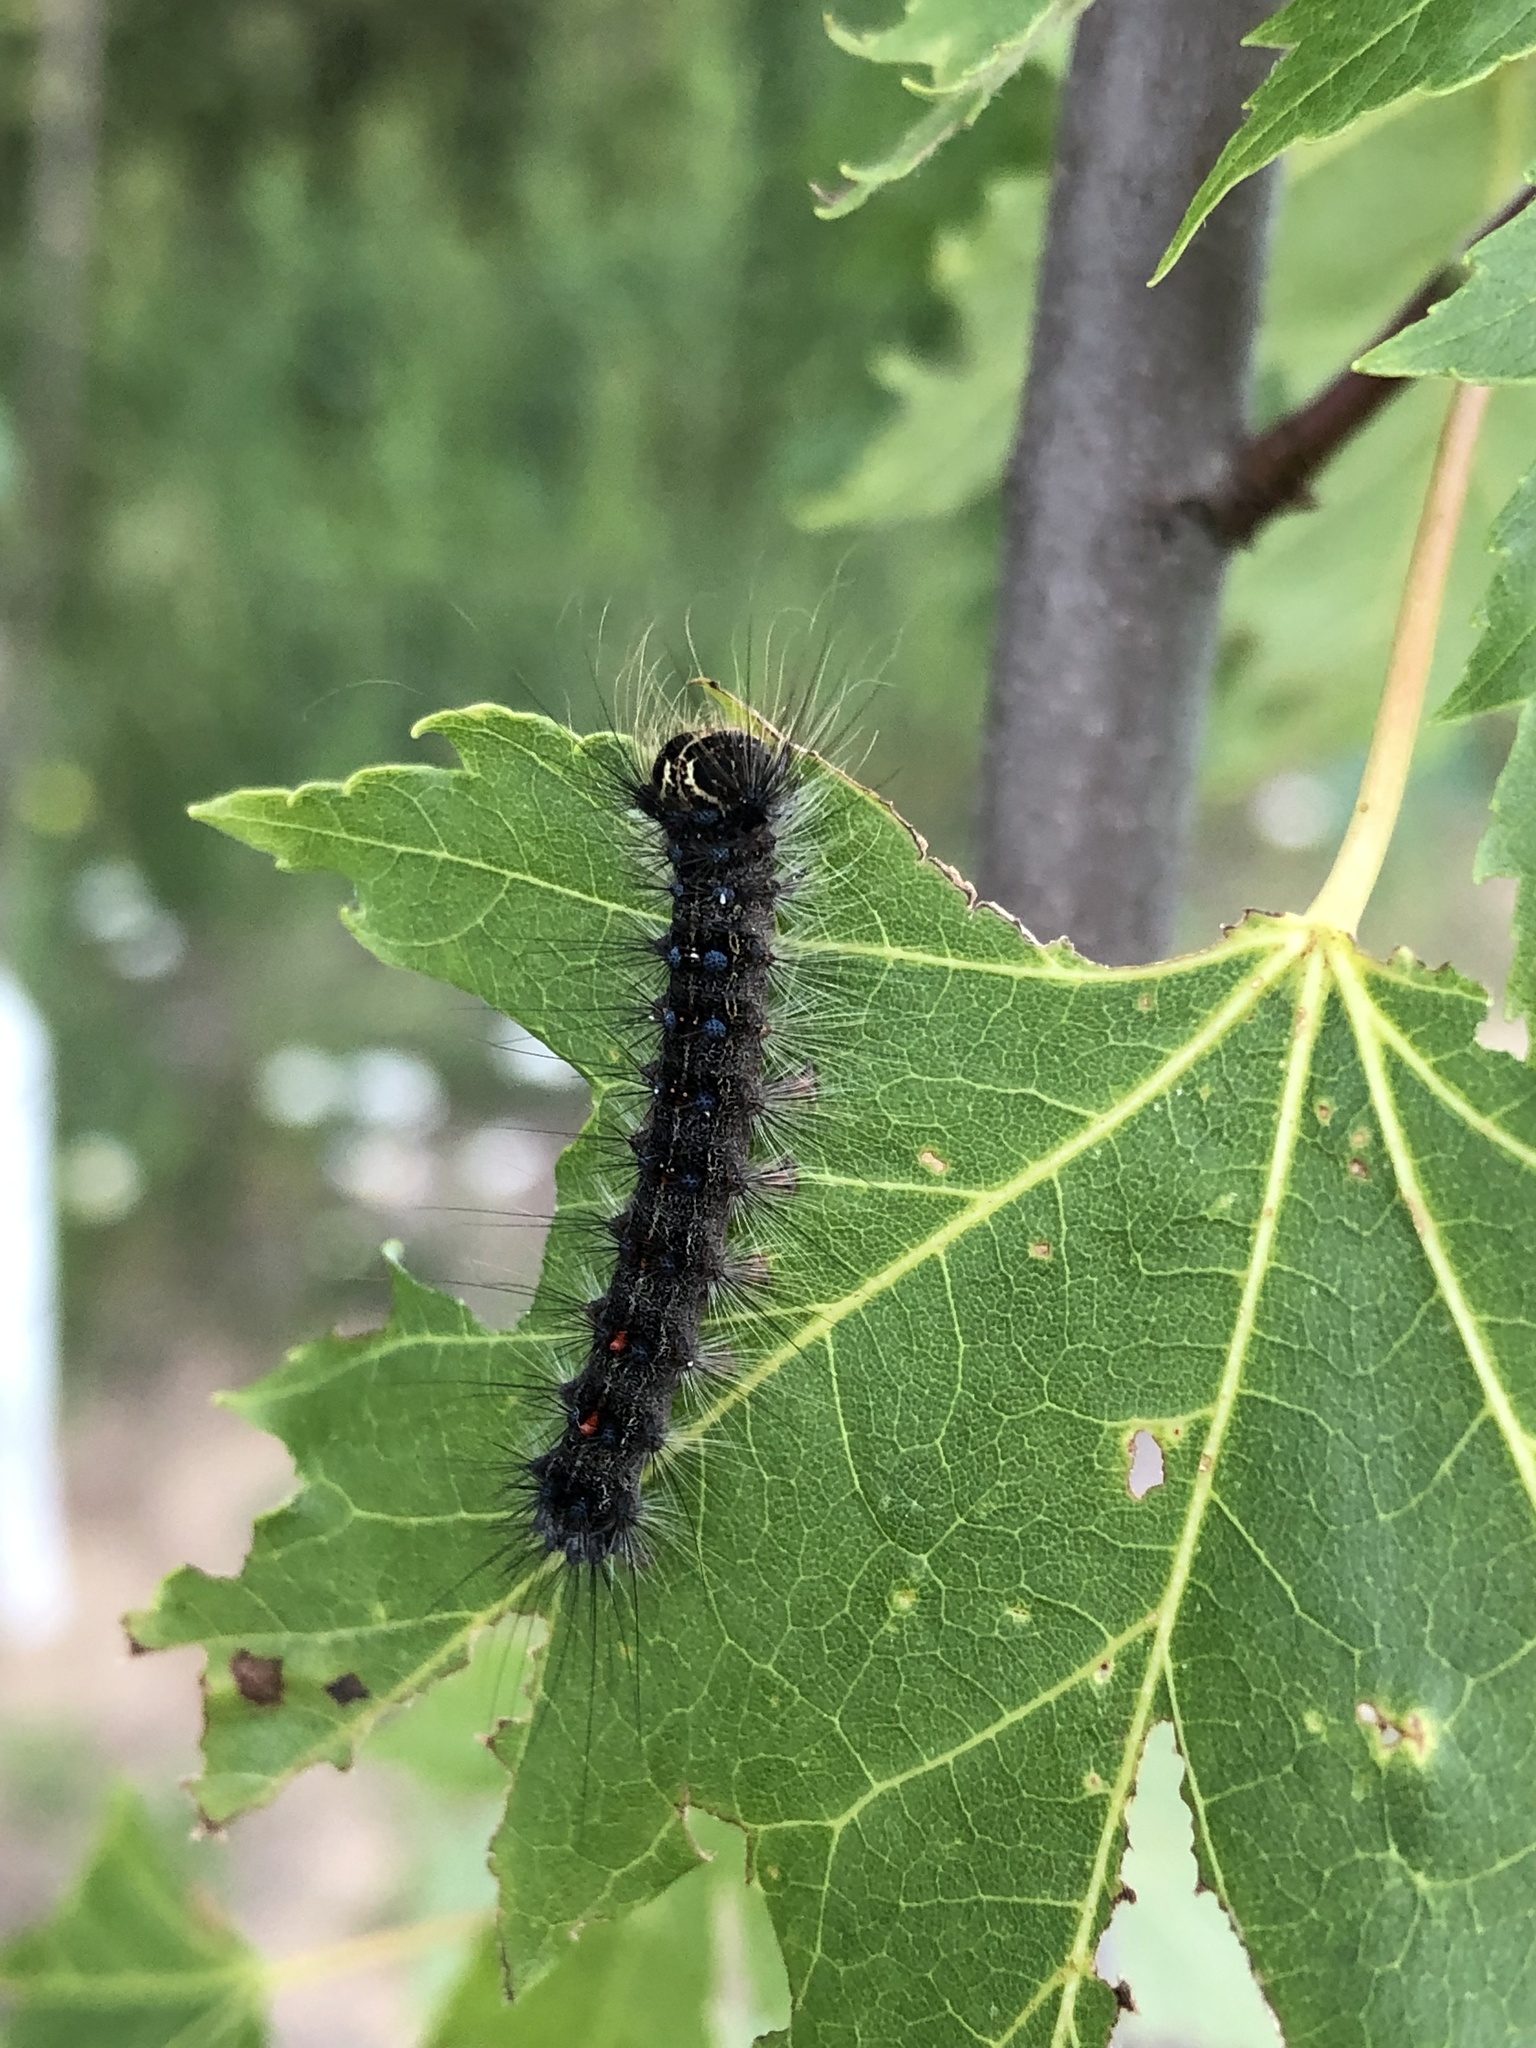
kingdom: Animalia
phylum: Arthropoda
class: Insecta
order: Lepidoptera
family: Erebidae
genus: Lymantria
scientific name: Lymantria dispar
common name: Gypsy moth
